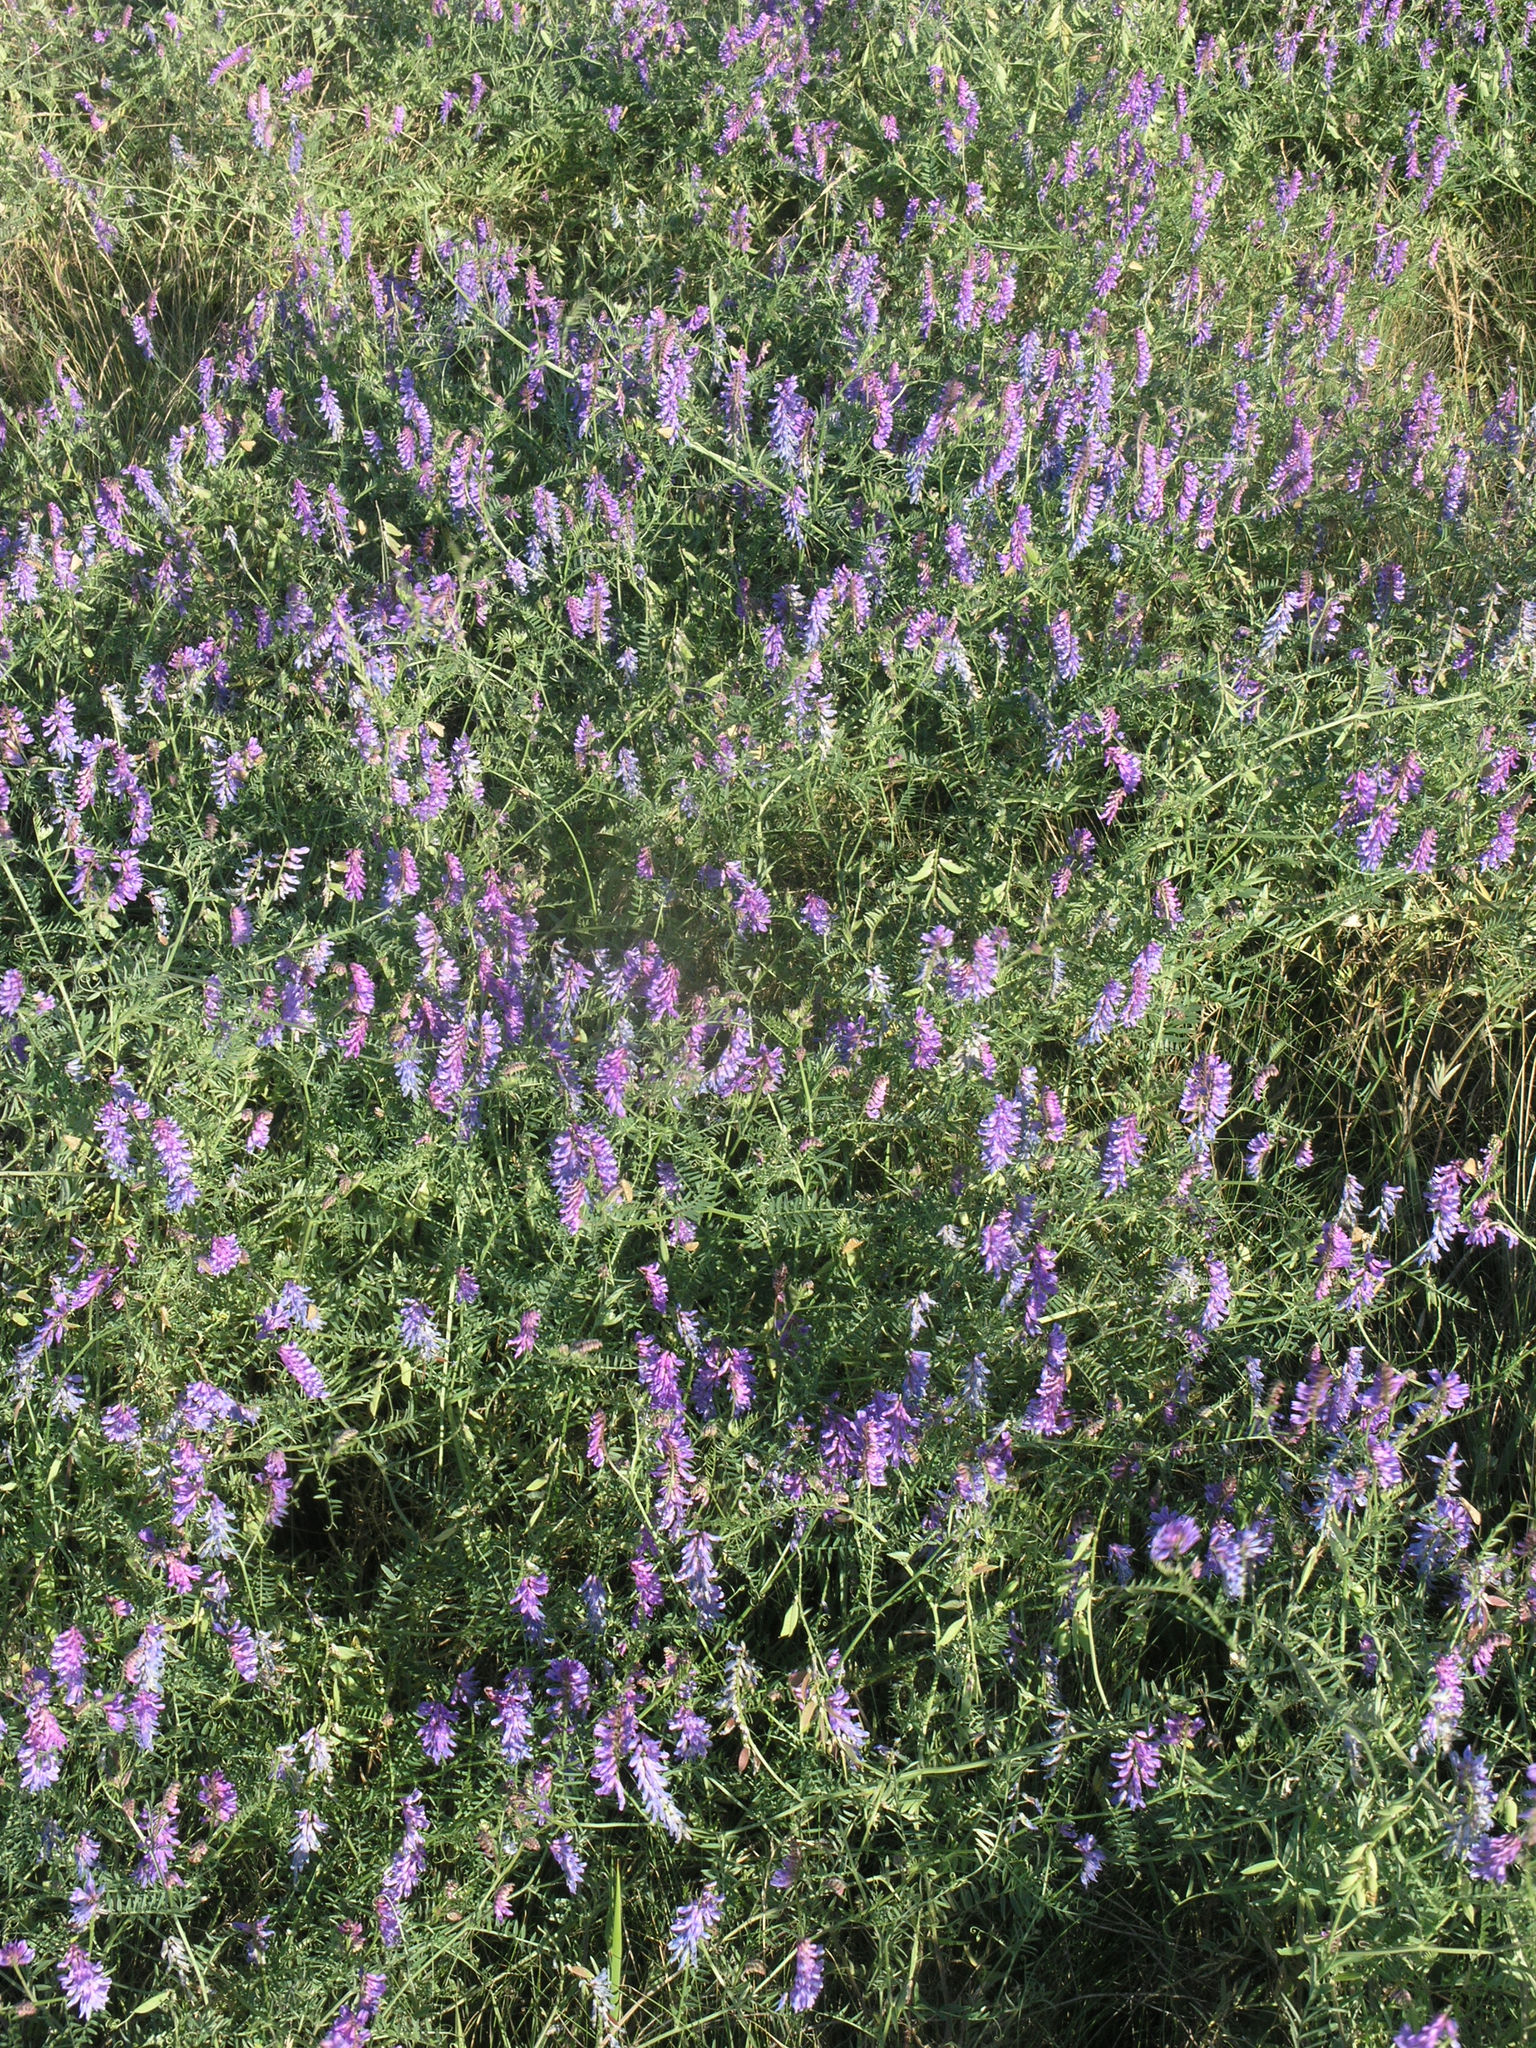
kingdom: Plantae
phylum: Tracheophyta
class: Magnoliopsida
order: Fabales
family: Fabaceae
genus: Vicia
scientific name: Vicia cracca
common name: Bird vetch
